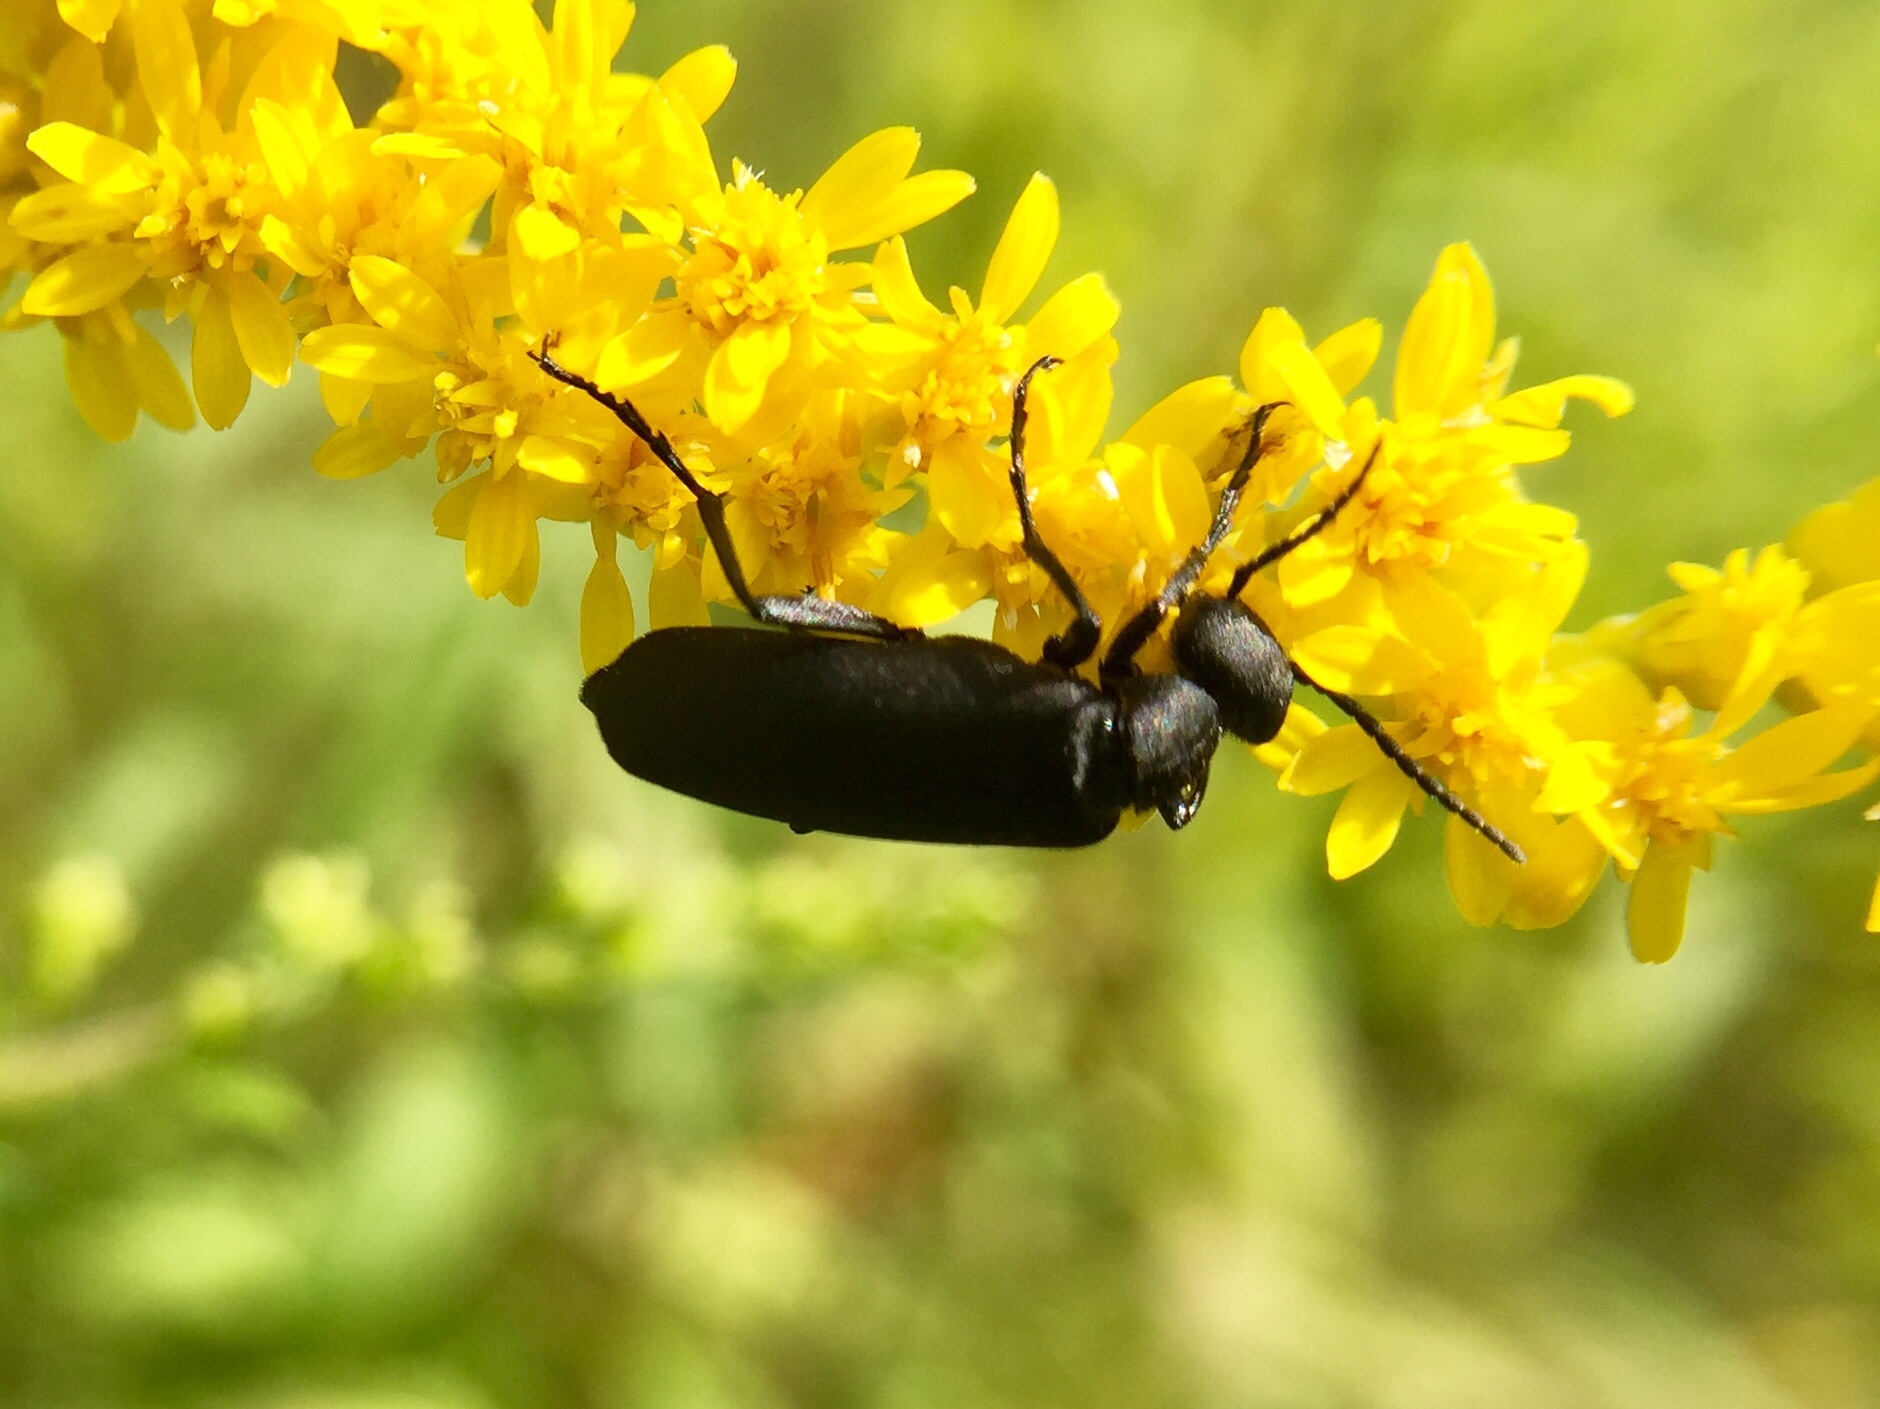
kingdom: Animalia
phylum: Arthropoda
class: Insecta
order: Coleoptera
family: Meloidae
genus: Epicauta
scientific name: Epicauta pensylvanica
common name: Black blister beetle
